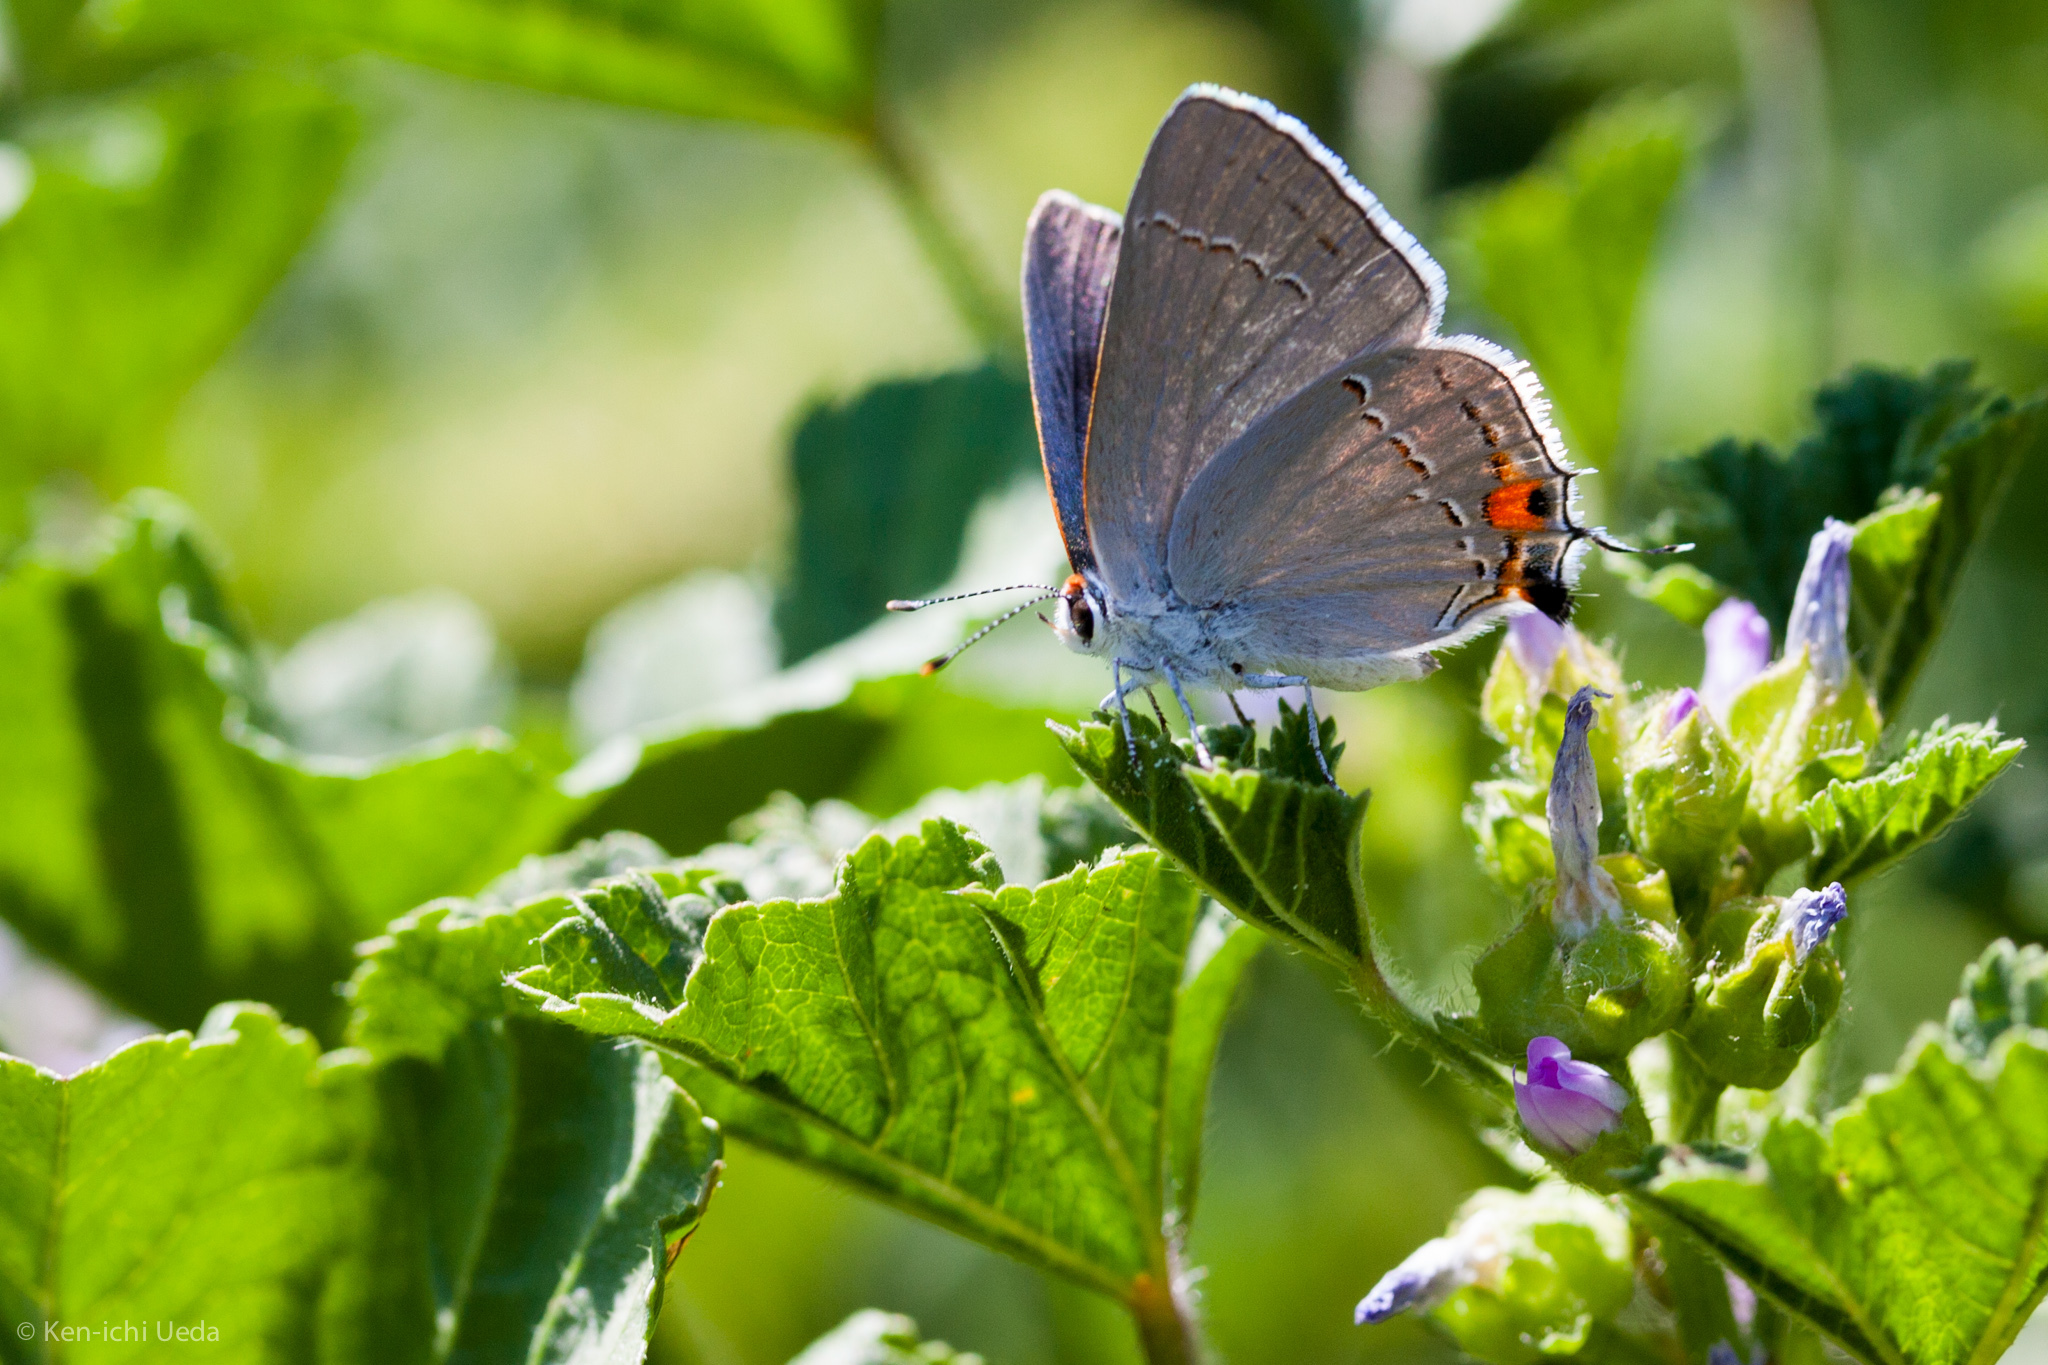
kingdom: Animalia
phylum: Arthropoda
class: Insecta
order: Lepidoptera
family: Lycaenidae
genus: Strymon
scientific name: Strymon melinus
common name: Gray hairstreak
